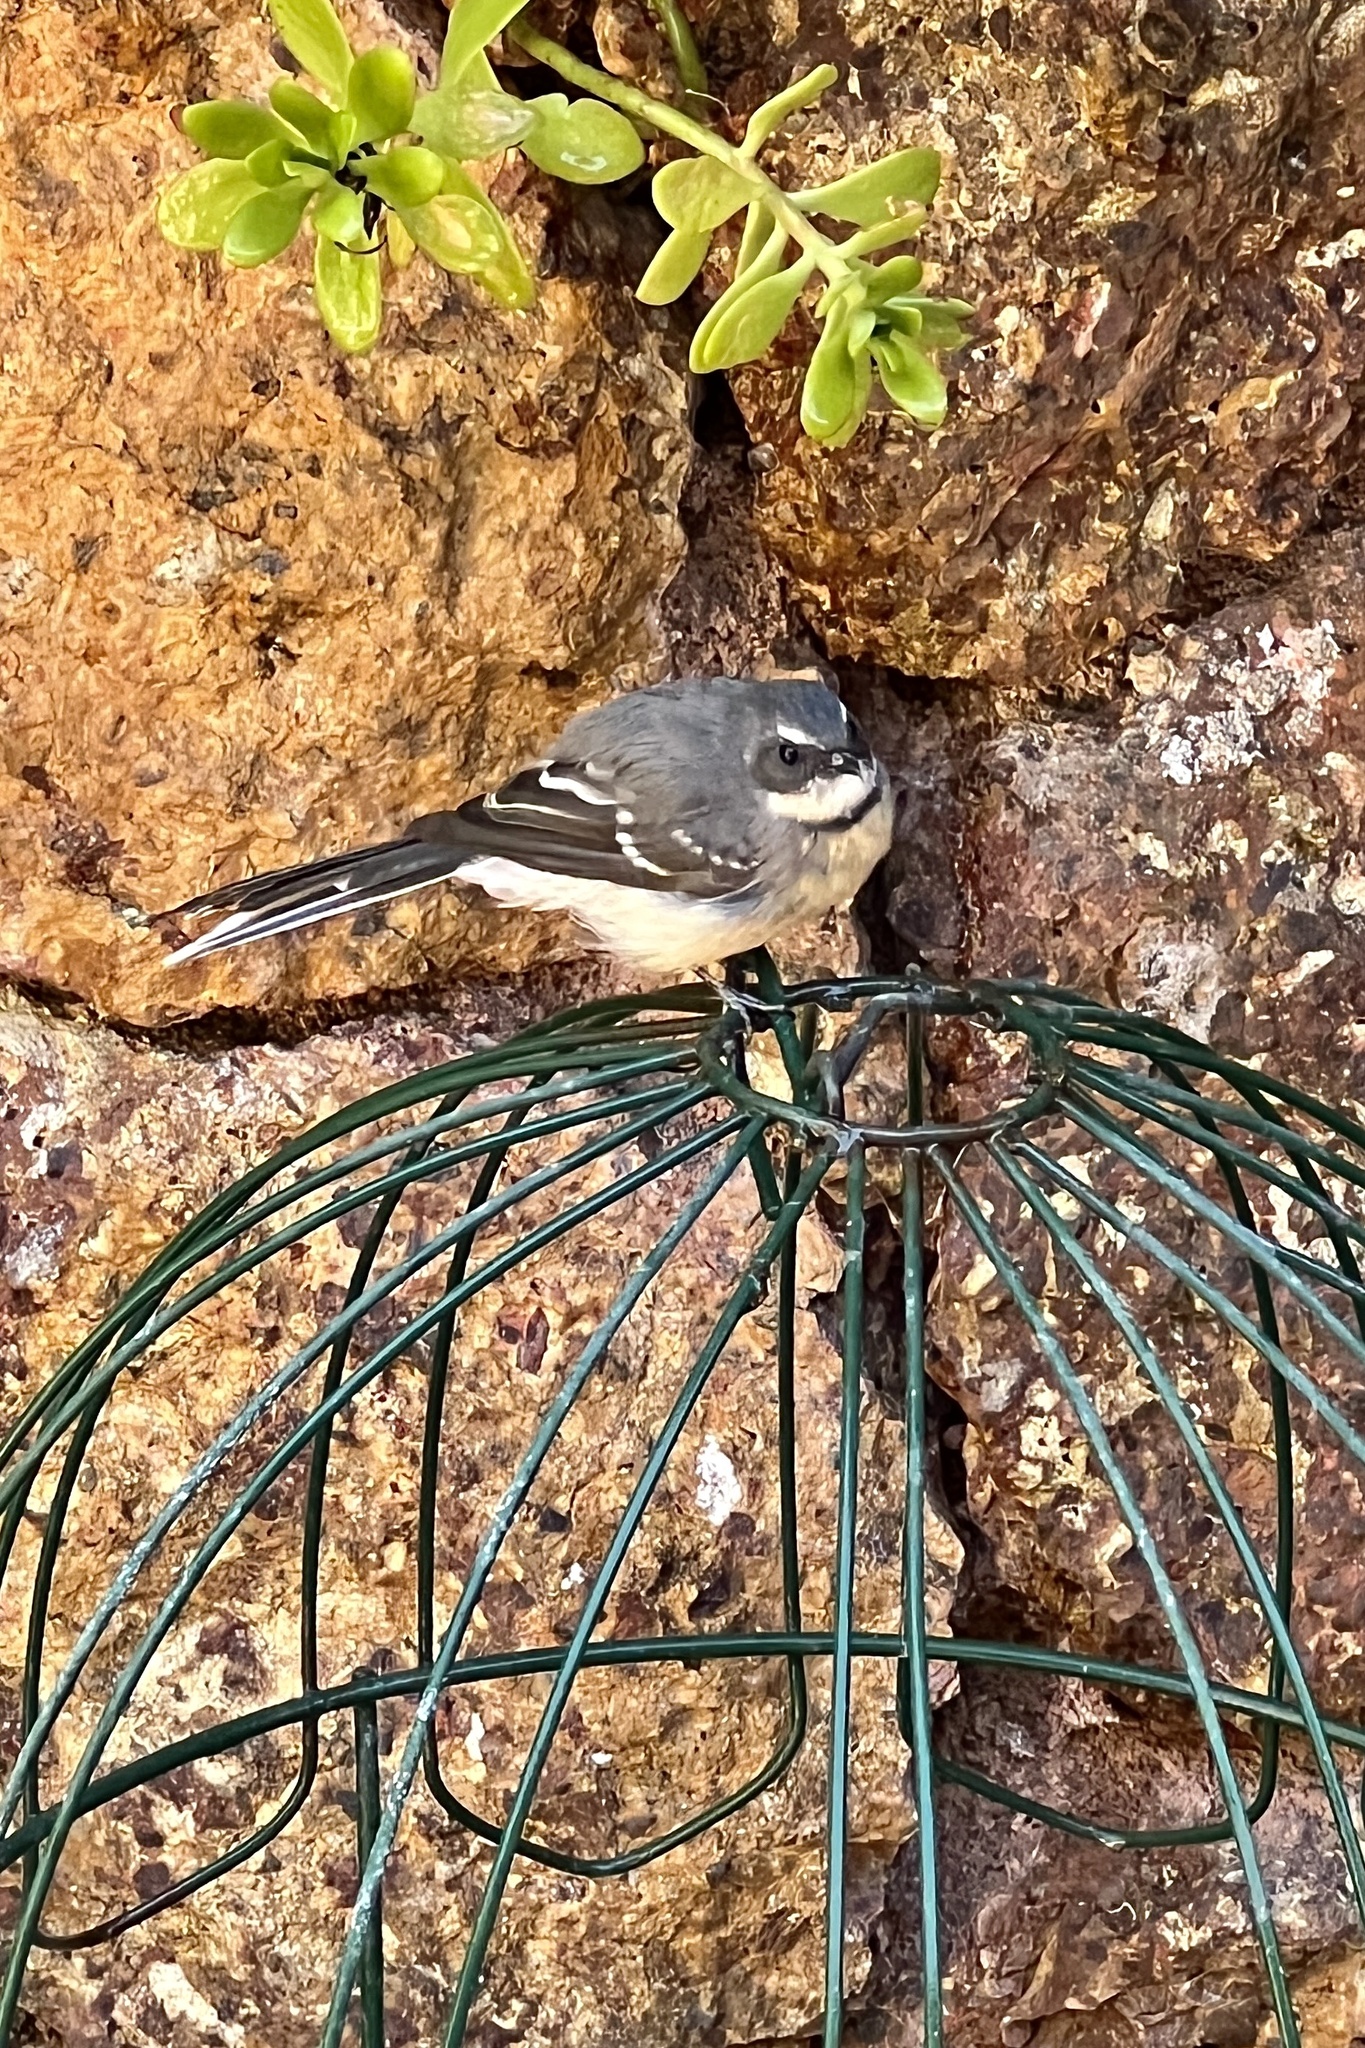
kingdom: Animalia
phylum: Chordata
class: Aves
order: Passeriformes
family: Rhipiduridae
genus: Rhipidura
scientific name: Rhipidura albiscapa
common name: Grey fantail
